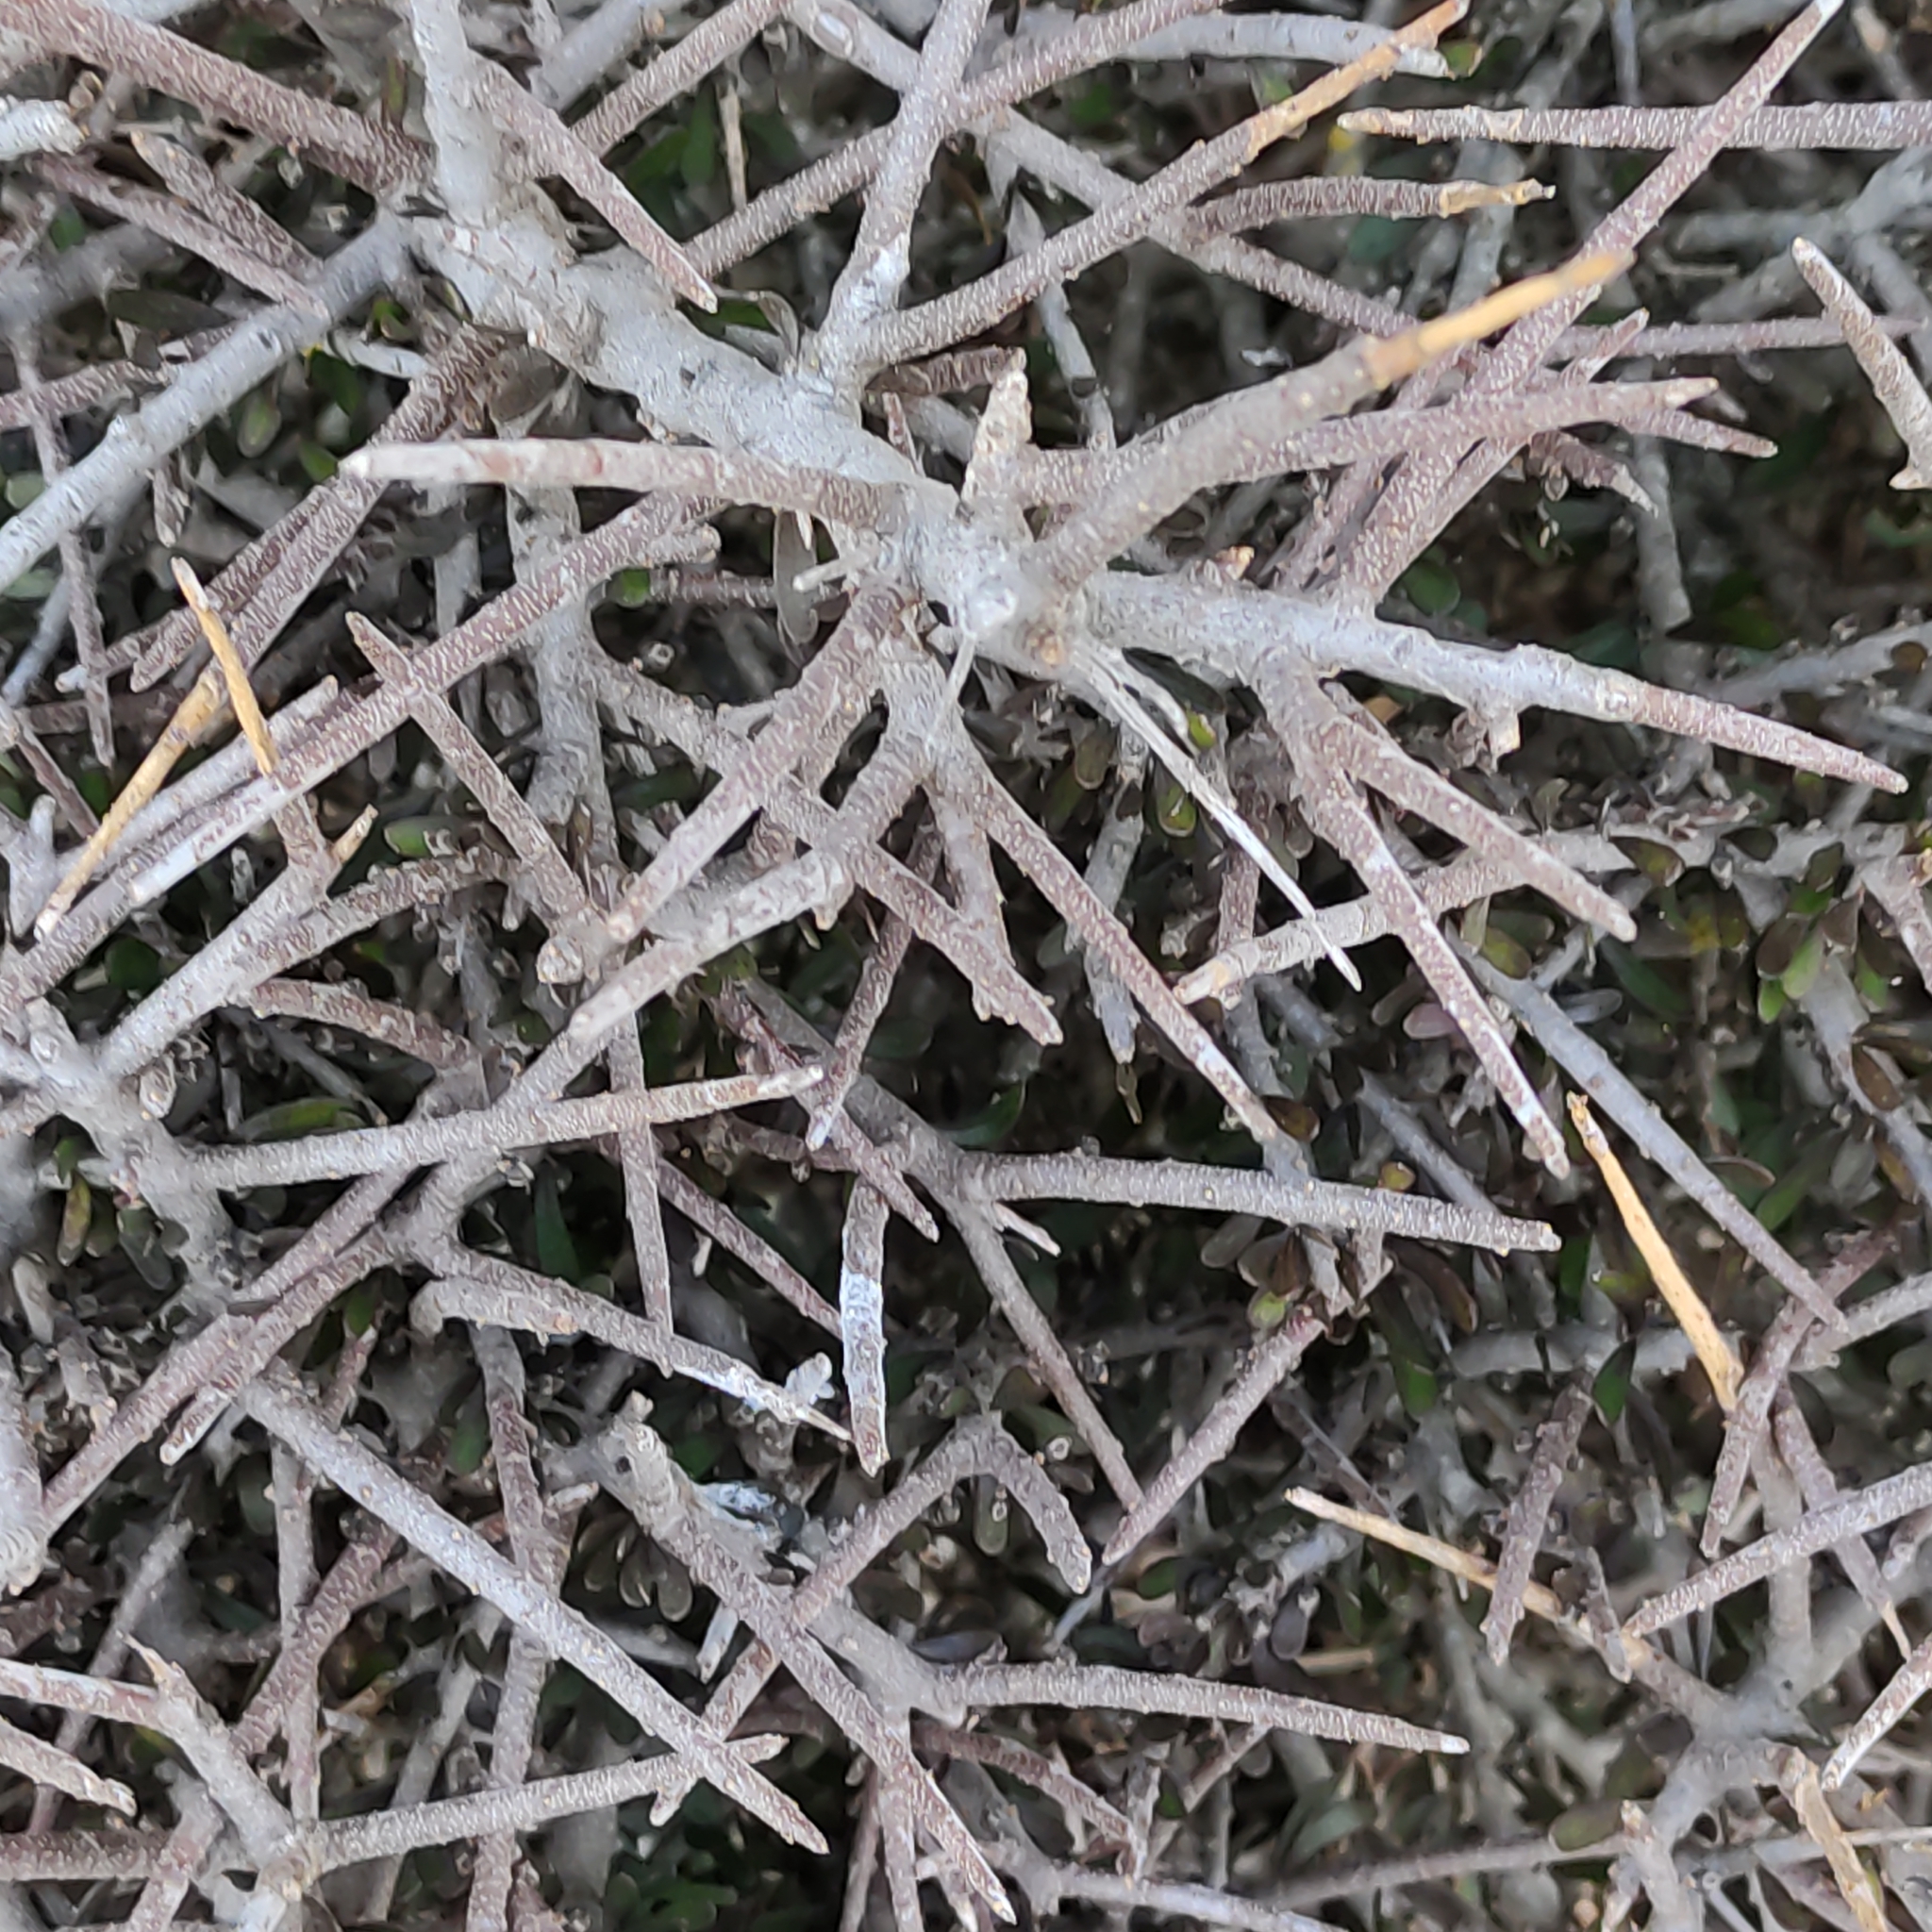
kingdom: Plantae
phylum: Tracheophyta
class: Magnoliopsida
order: Malpighiales
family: Violaceae
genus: Melicytus
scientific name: Melicytus alpinus
